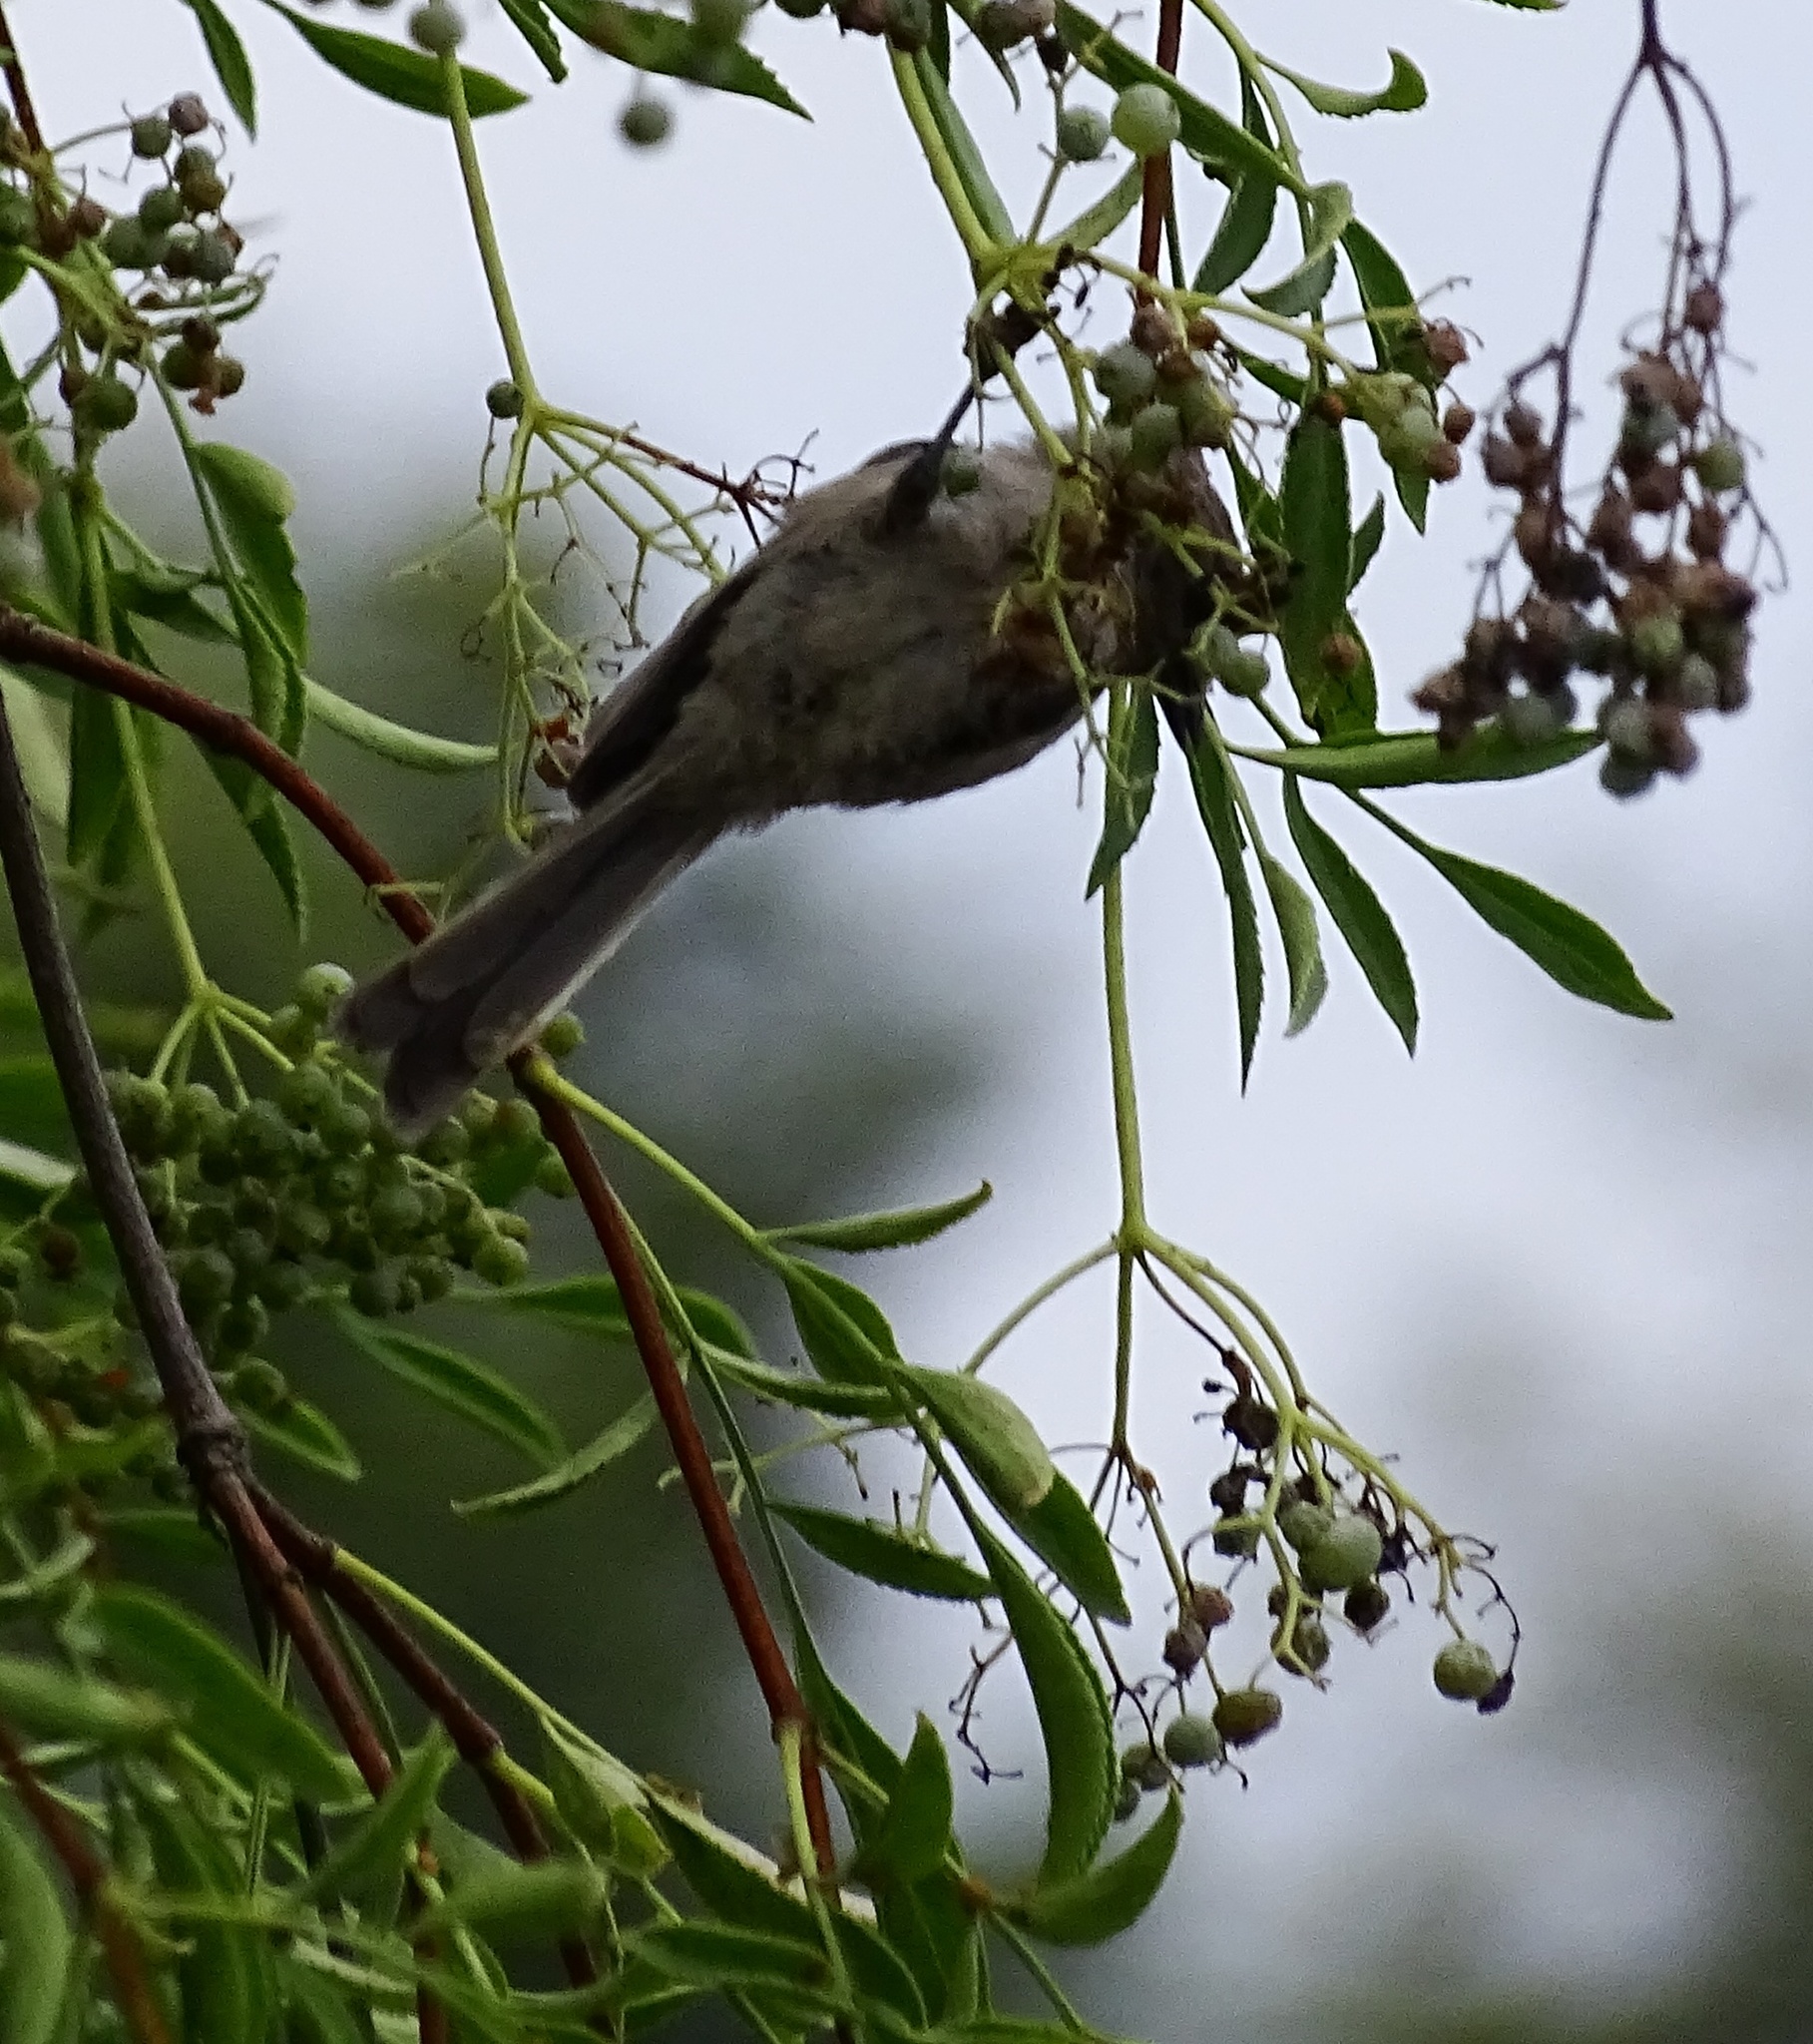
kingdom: Animalia
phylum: Chordata
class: Aves
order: Passeriformes
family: Aegithalidae
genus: Psaltriparus
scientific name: Psaltriparus minimus
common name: American bushtit
